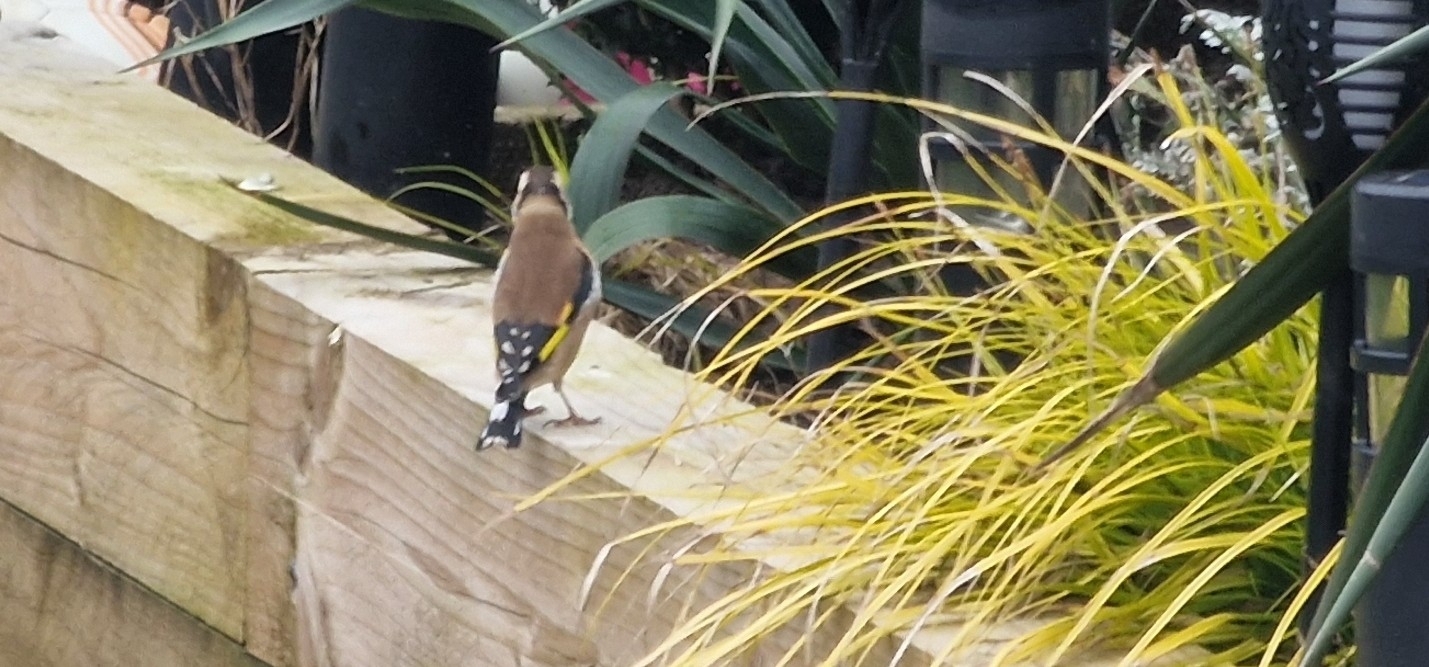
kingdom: Animalia
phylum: Chordata
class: Aves
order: Passeriformes
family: Fringillidae
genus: Carduelis
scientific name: Carduelis carduelis
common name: European goldfinch
